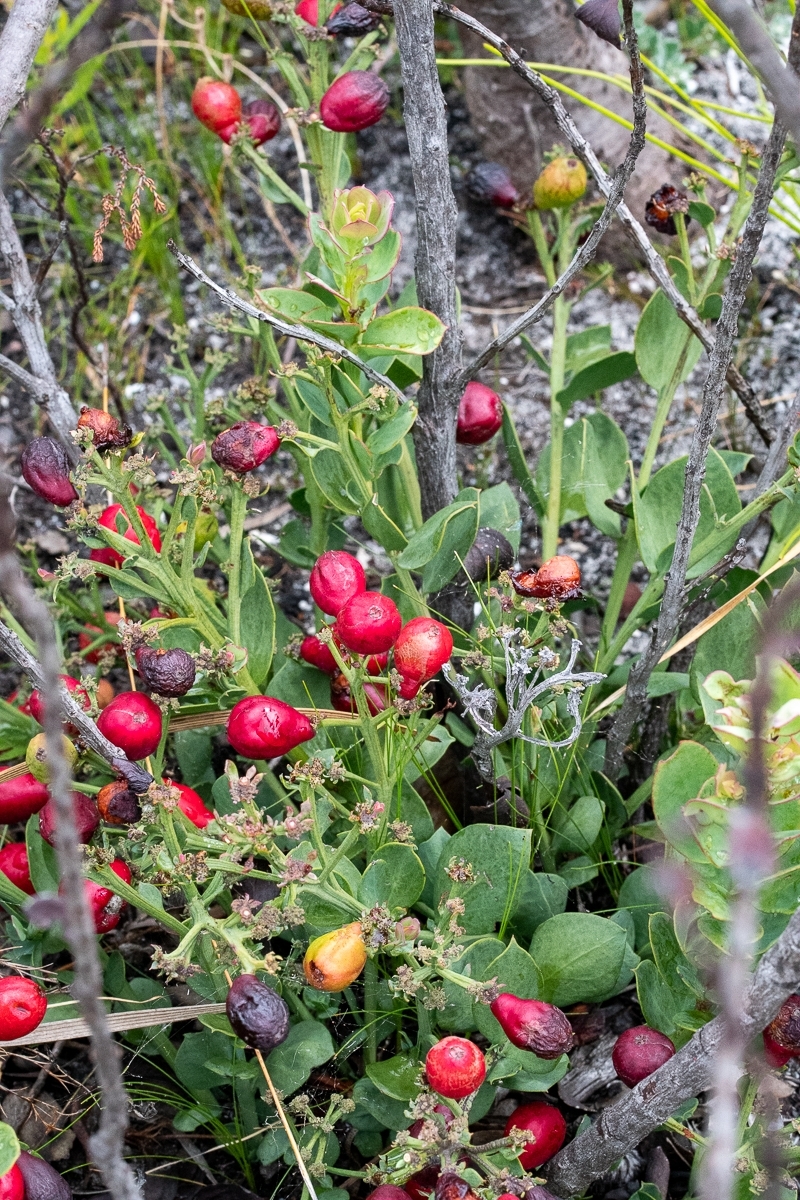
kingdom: Plantae
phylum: Tracheophyta
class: Magnoliopsida
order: Santalales
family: Santalaceae
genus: Osyris
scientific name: Osyris speciosa
